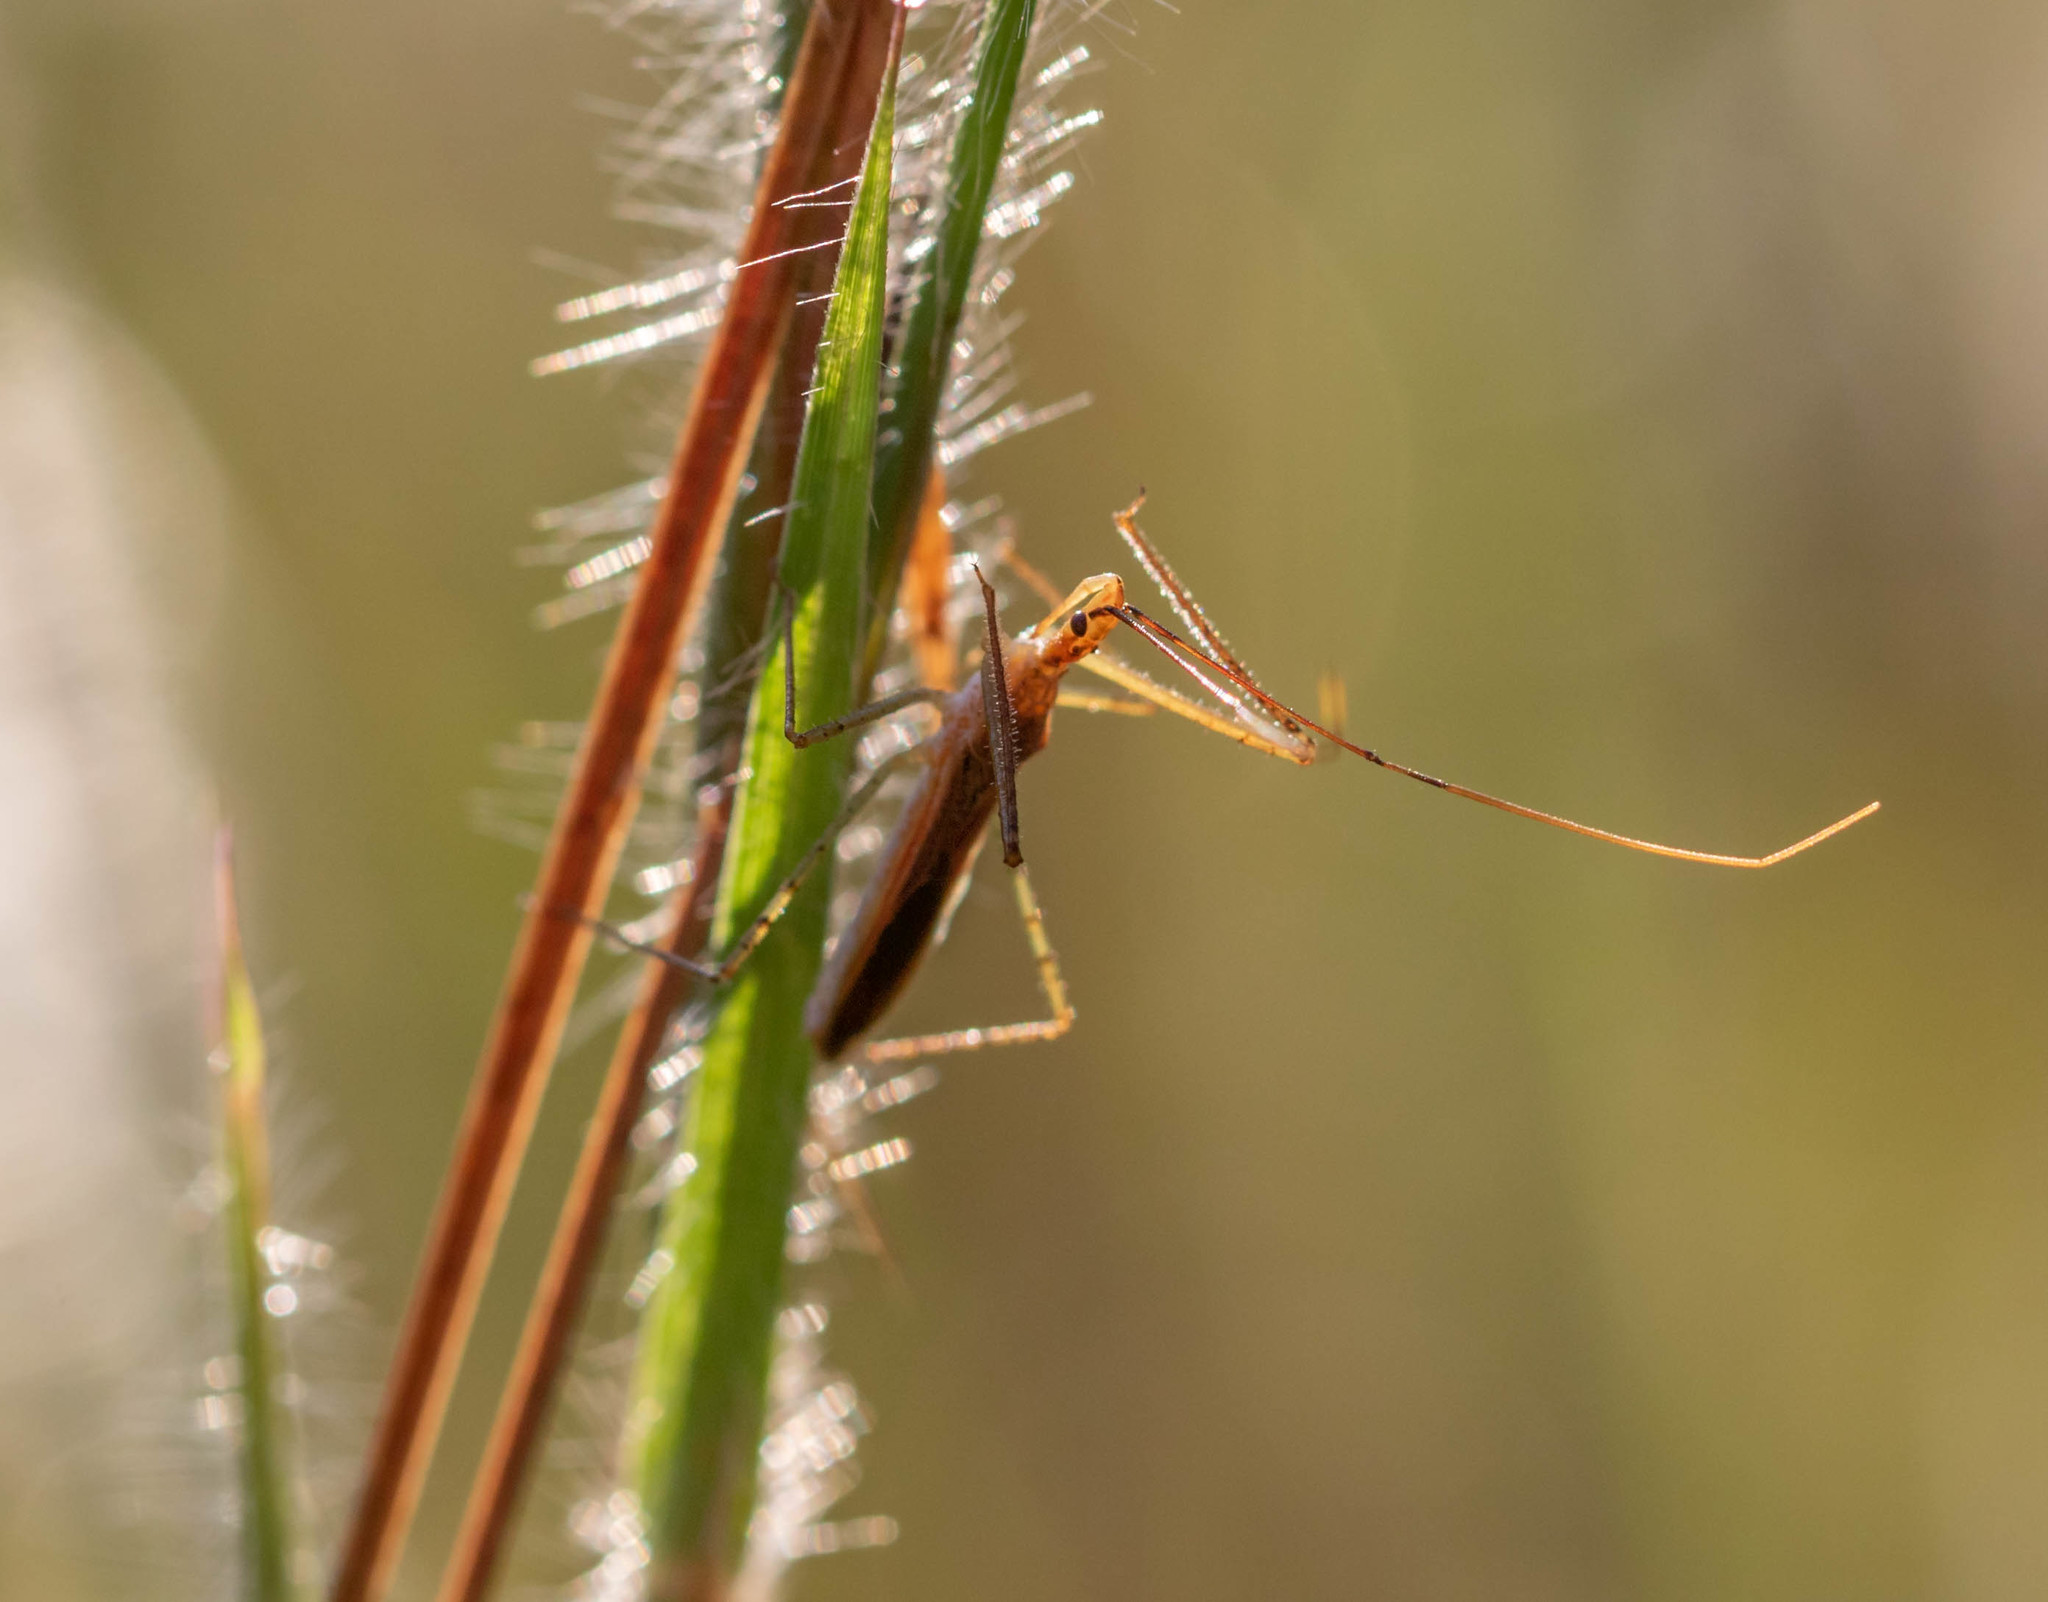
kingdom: Animalia
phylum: Arthropoda
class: Insecta
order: Hemiptera
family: Reduviidae
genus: Zelus
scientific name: Zelus cervicalis
